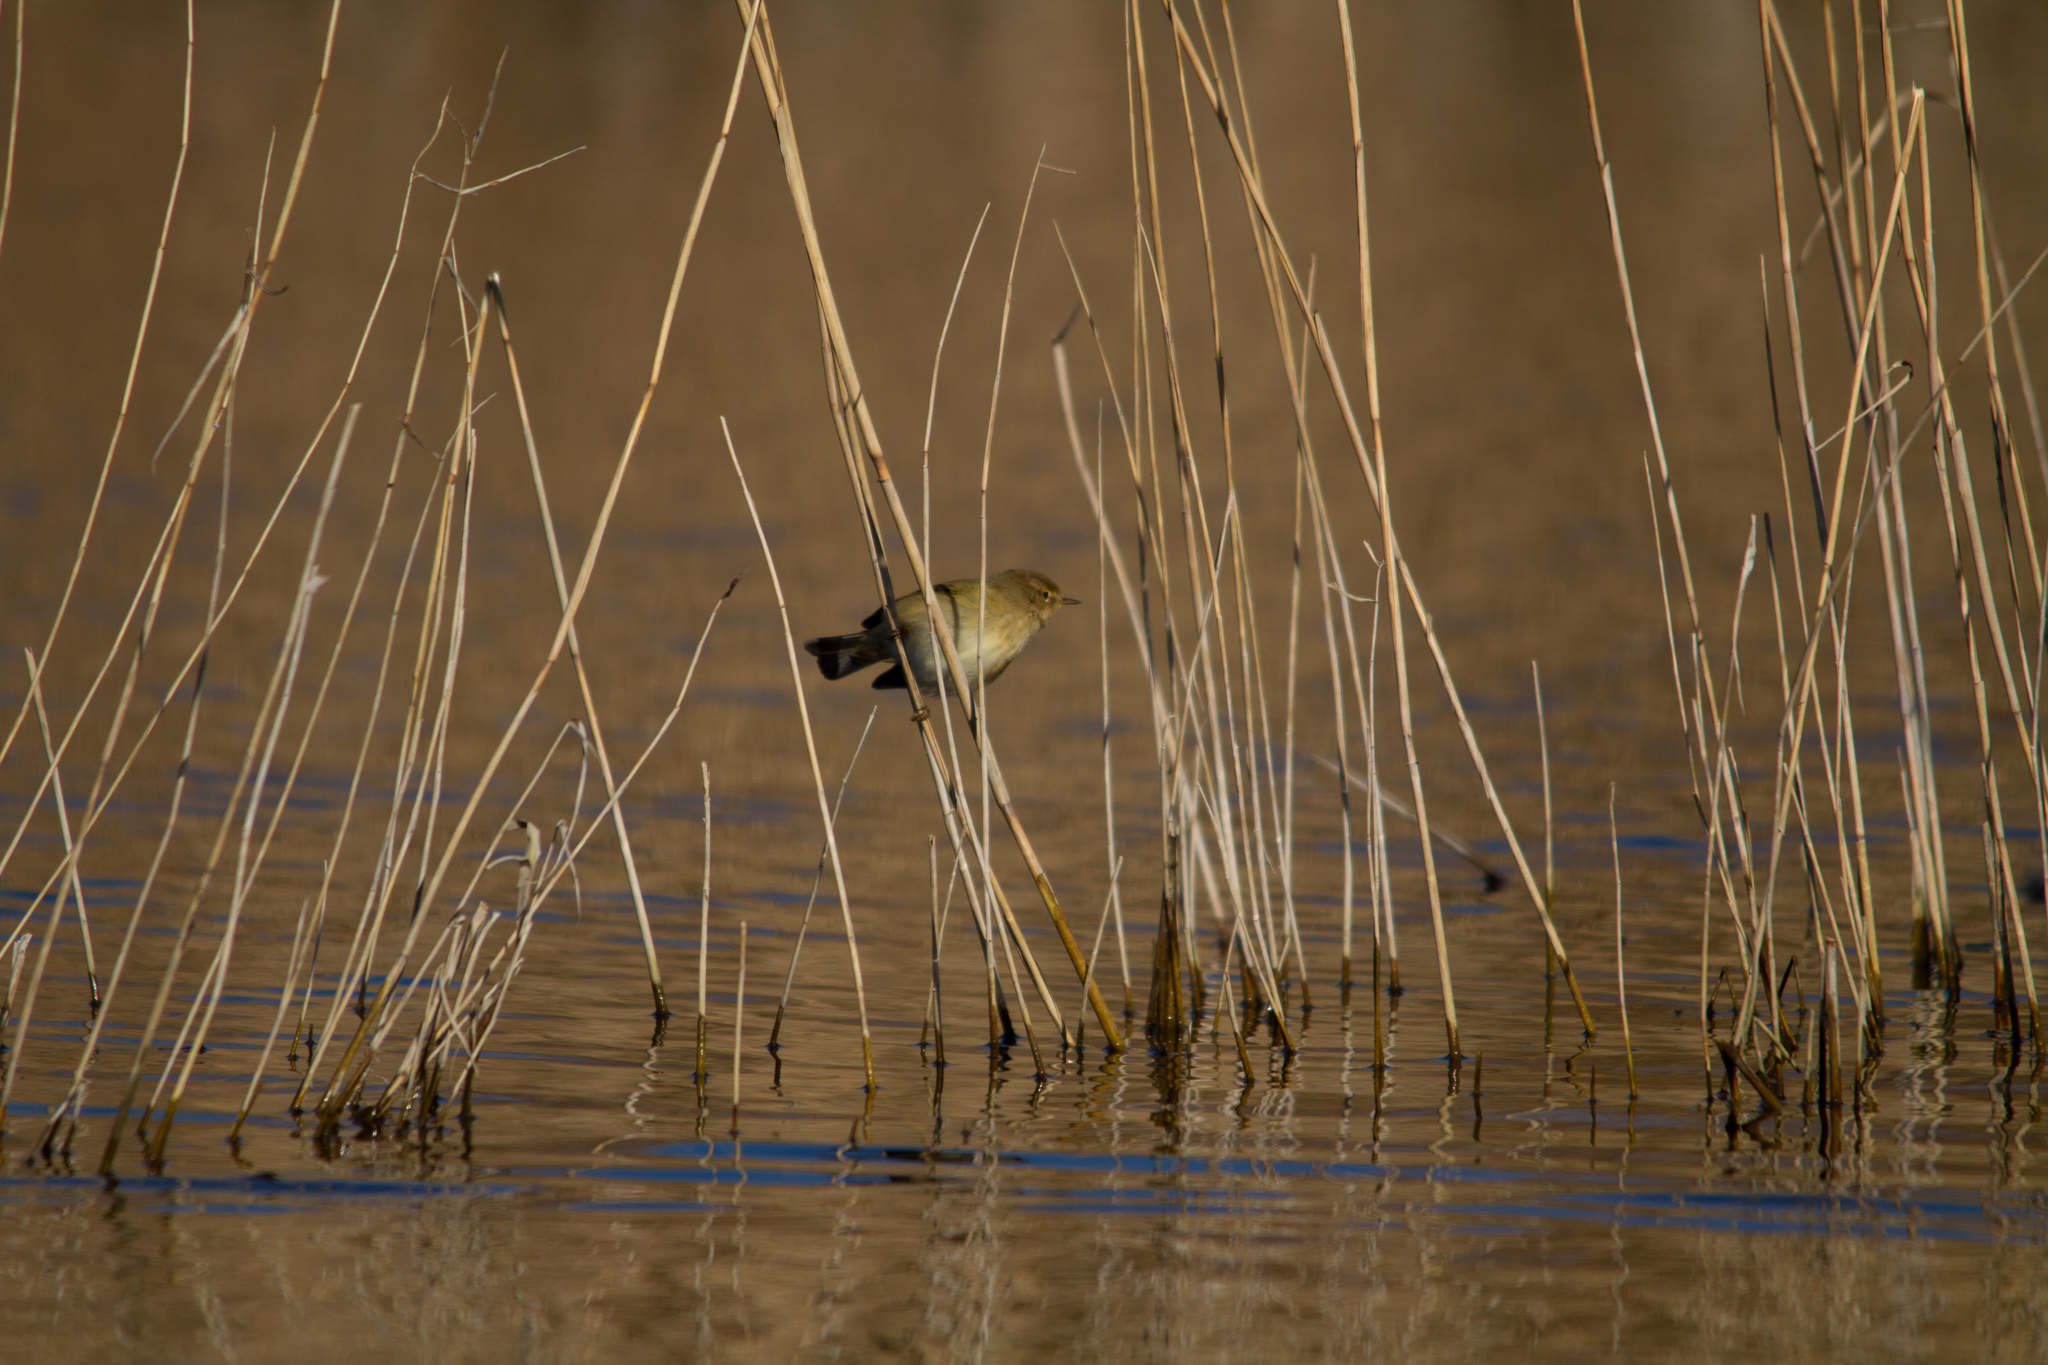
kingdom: Animalia
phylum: Chordata
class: Aves
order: Passeriformes
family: Phylloscopidae
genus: Phylloscopus
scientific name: Phylloscopus collybita
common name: Common chiffchaff
